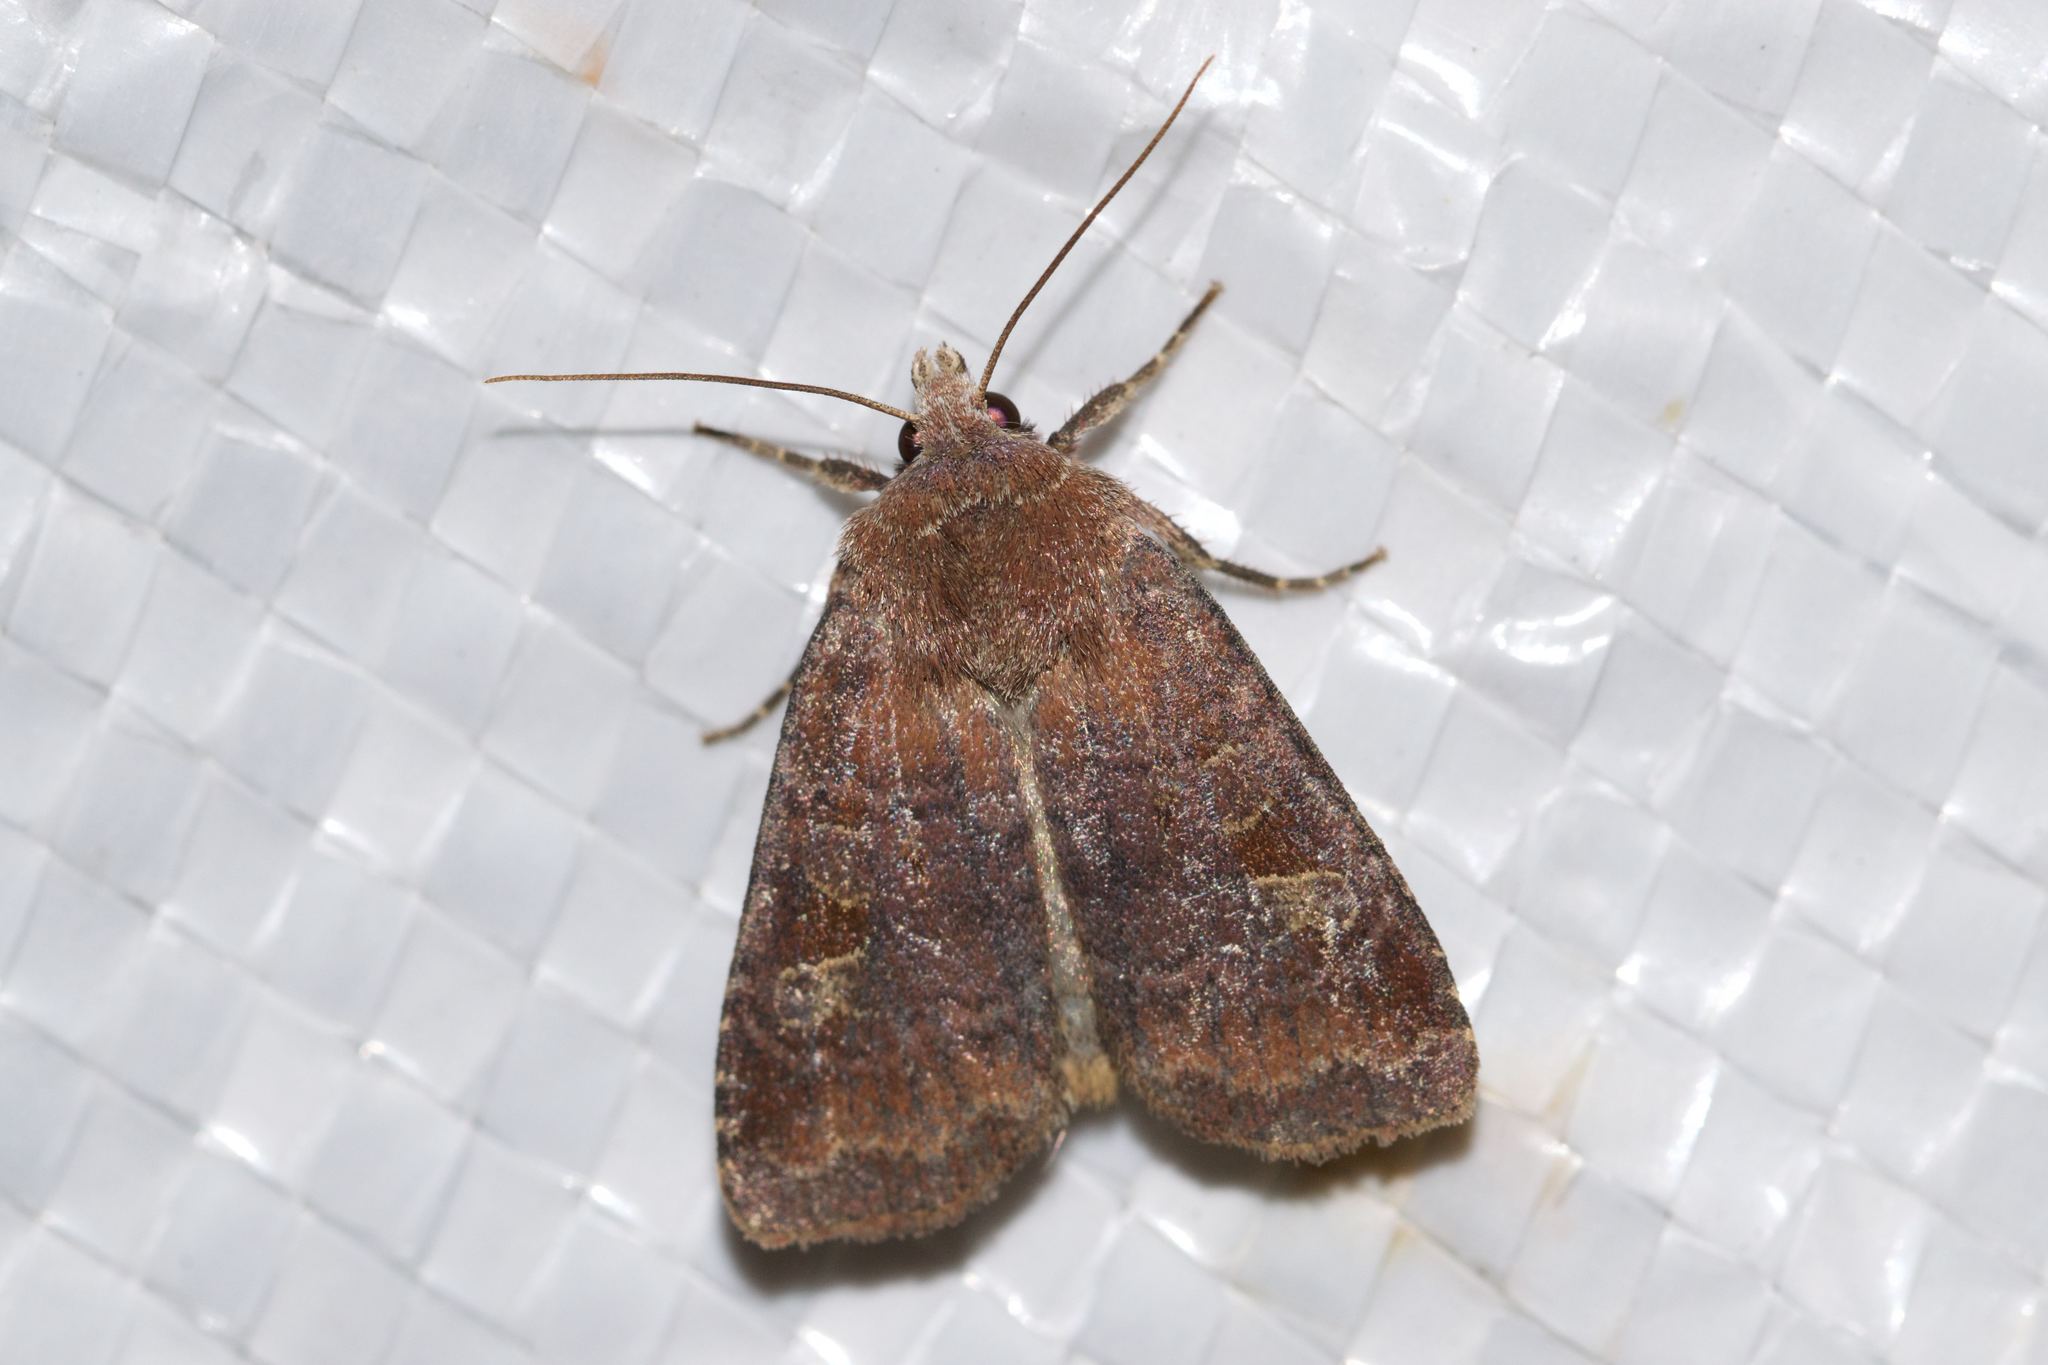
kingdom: Animalia
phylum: Arthropoda
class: Insecta
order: Lepidoptera
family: Noctuidae
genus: Diarsia
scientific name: Diarsia rosaria
